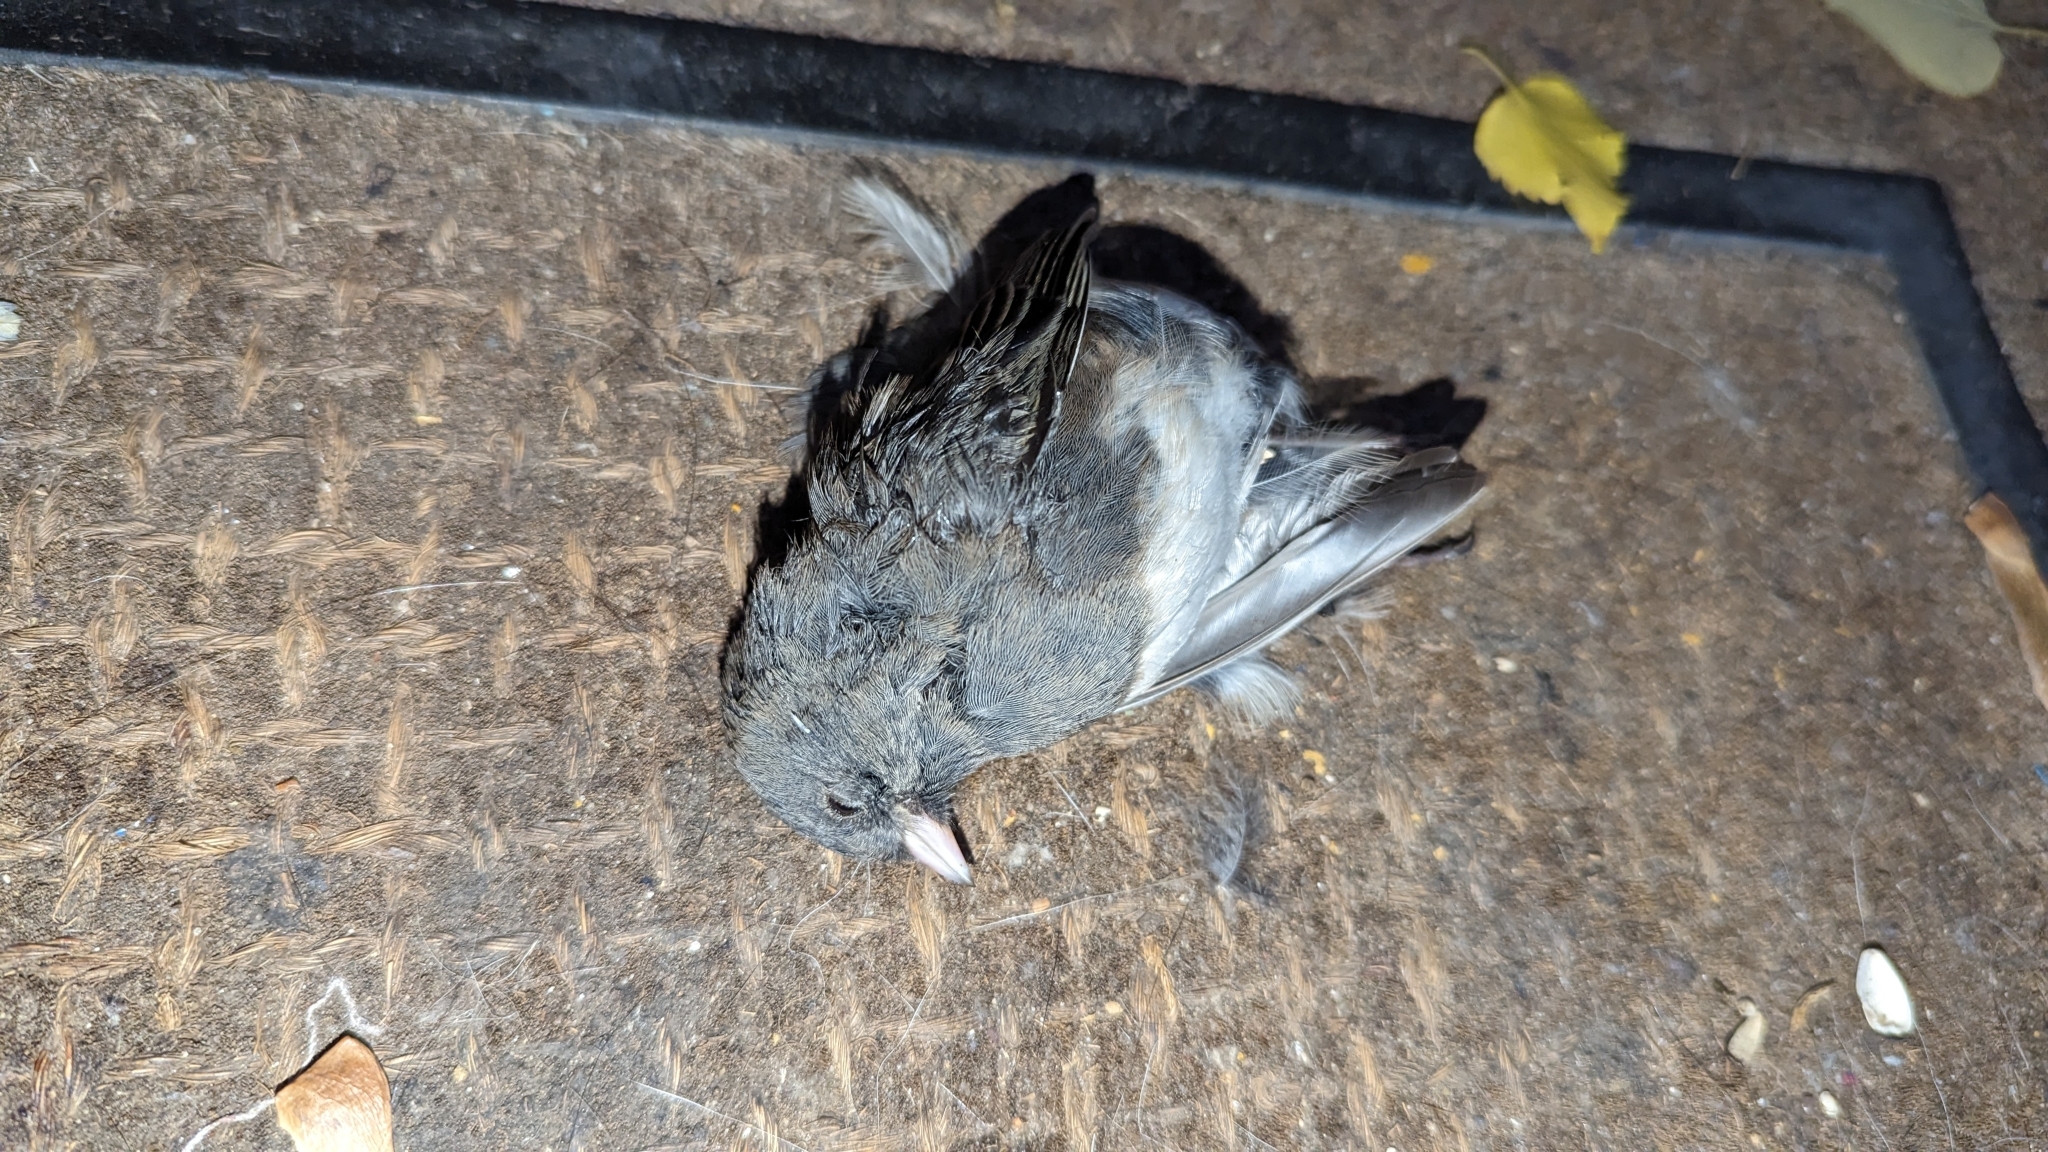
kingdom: Animalia
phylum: Chordata
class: Aves
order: Passeriformes
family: Passerellidae
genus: Junco
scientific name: Junco hyemalis
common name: Dark-eyed junco
